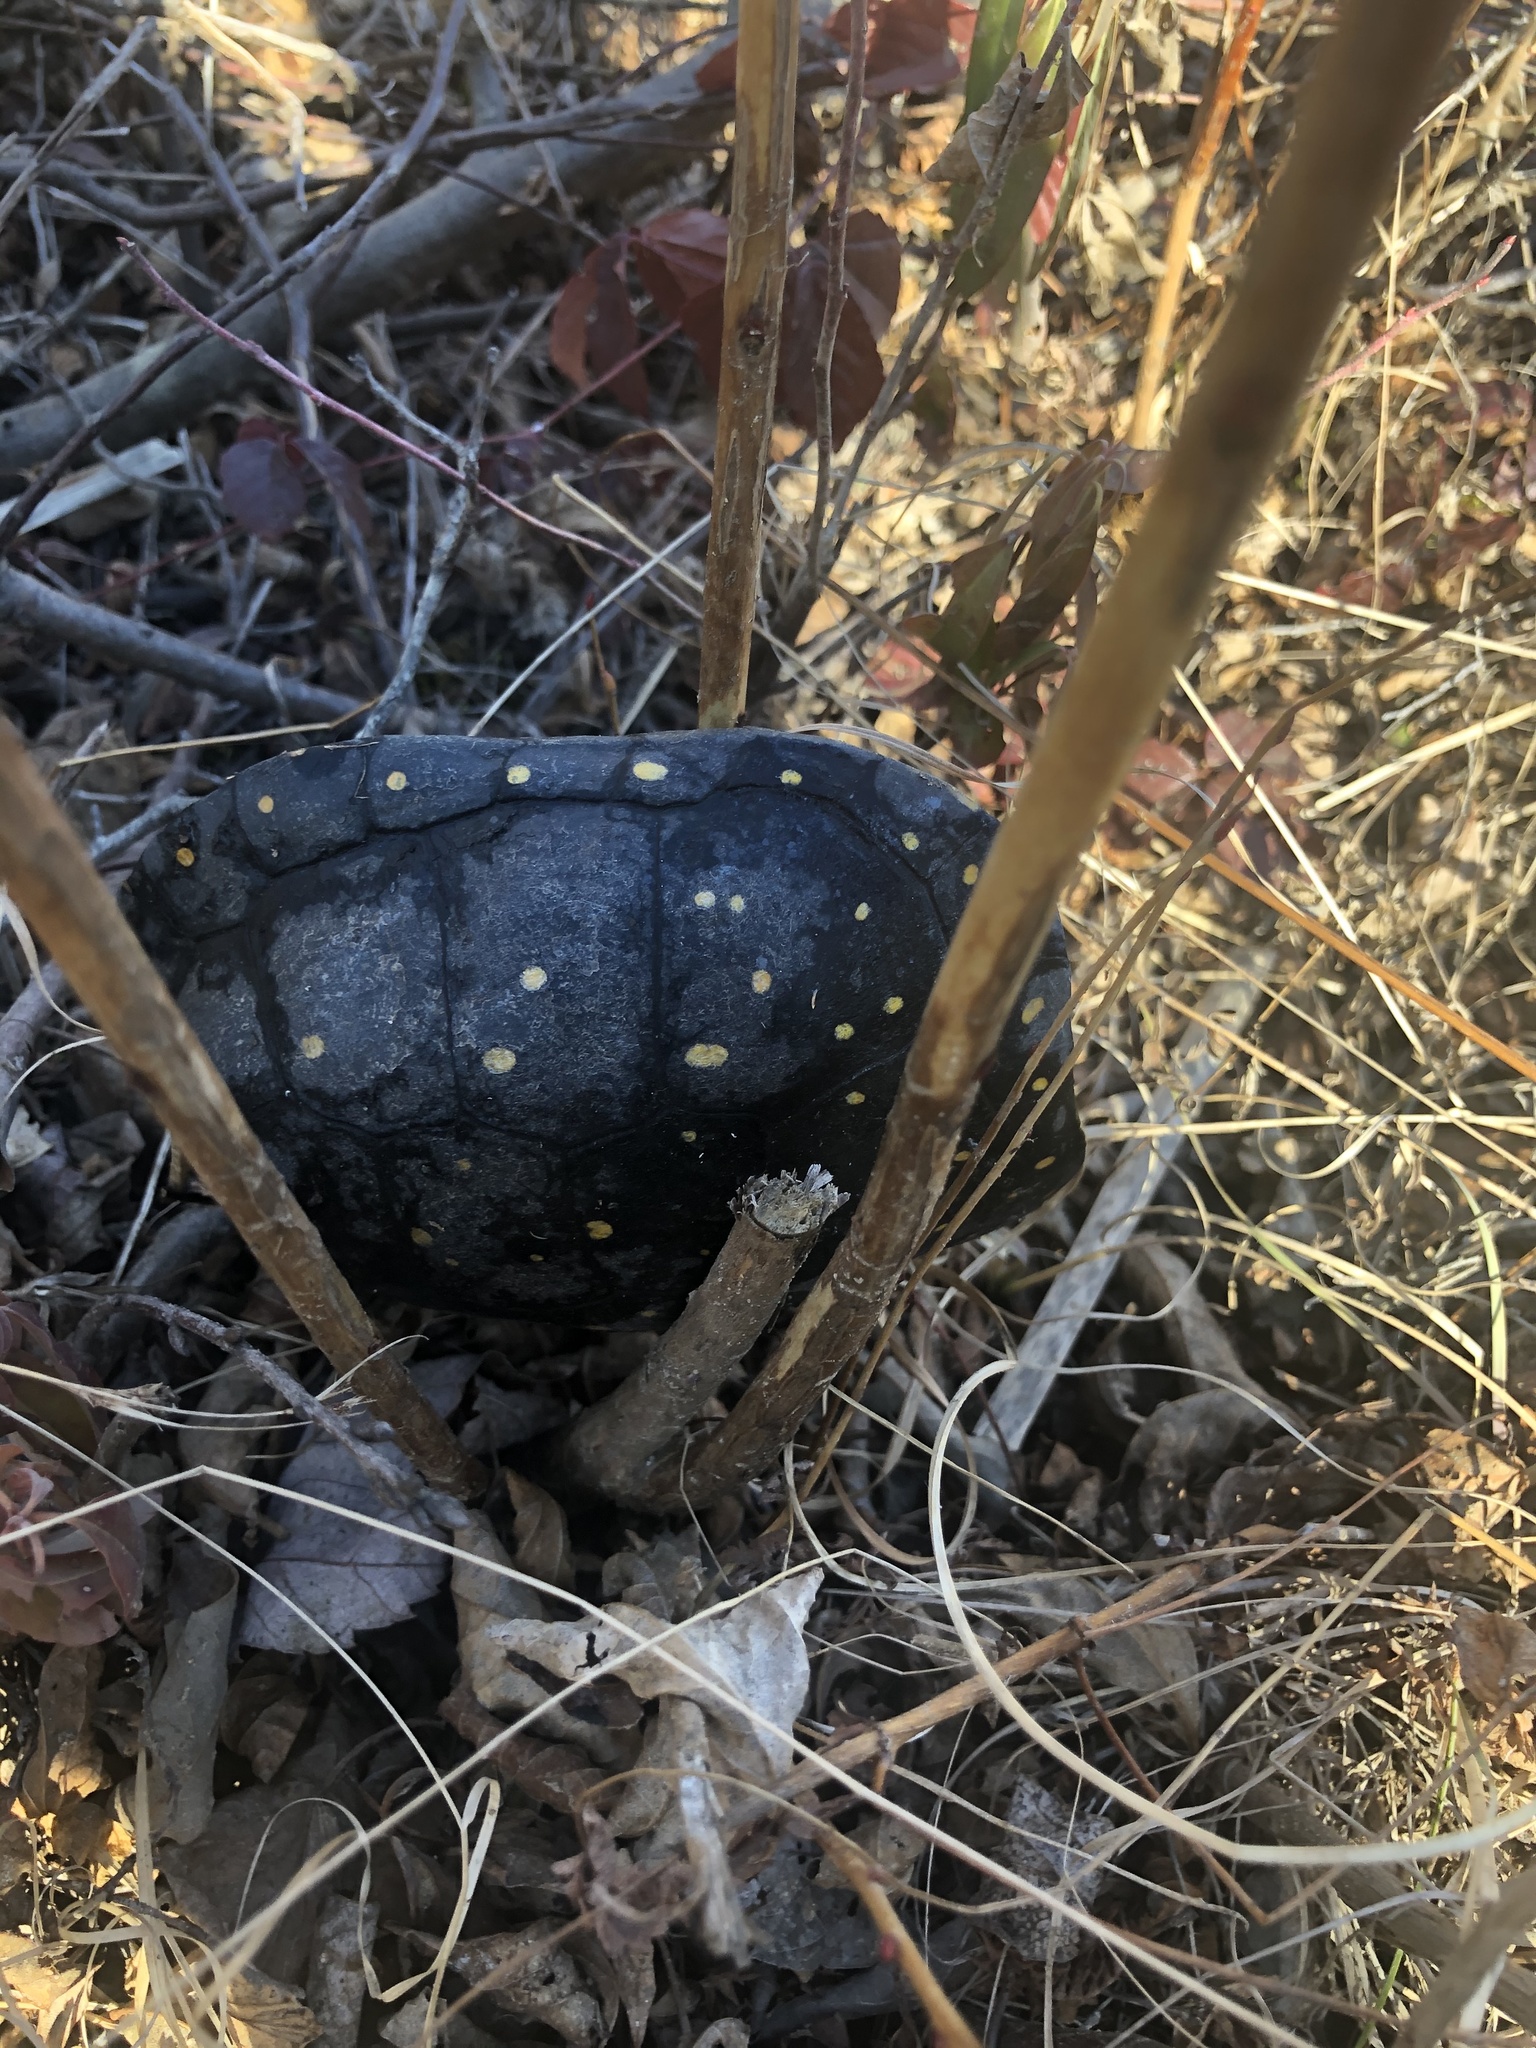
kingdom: Animalia
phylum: Chordata
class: Testudines
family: Emydidae
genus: Clemmys
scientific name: Clemmys guttata
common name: Spotted turtle
